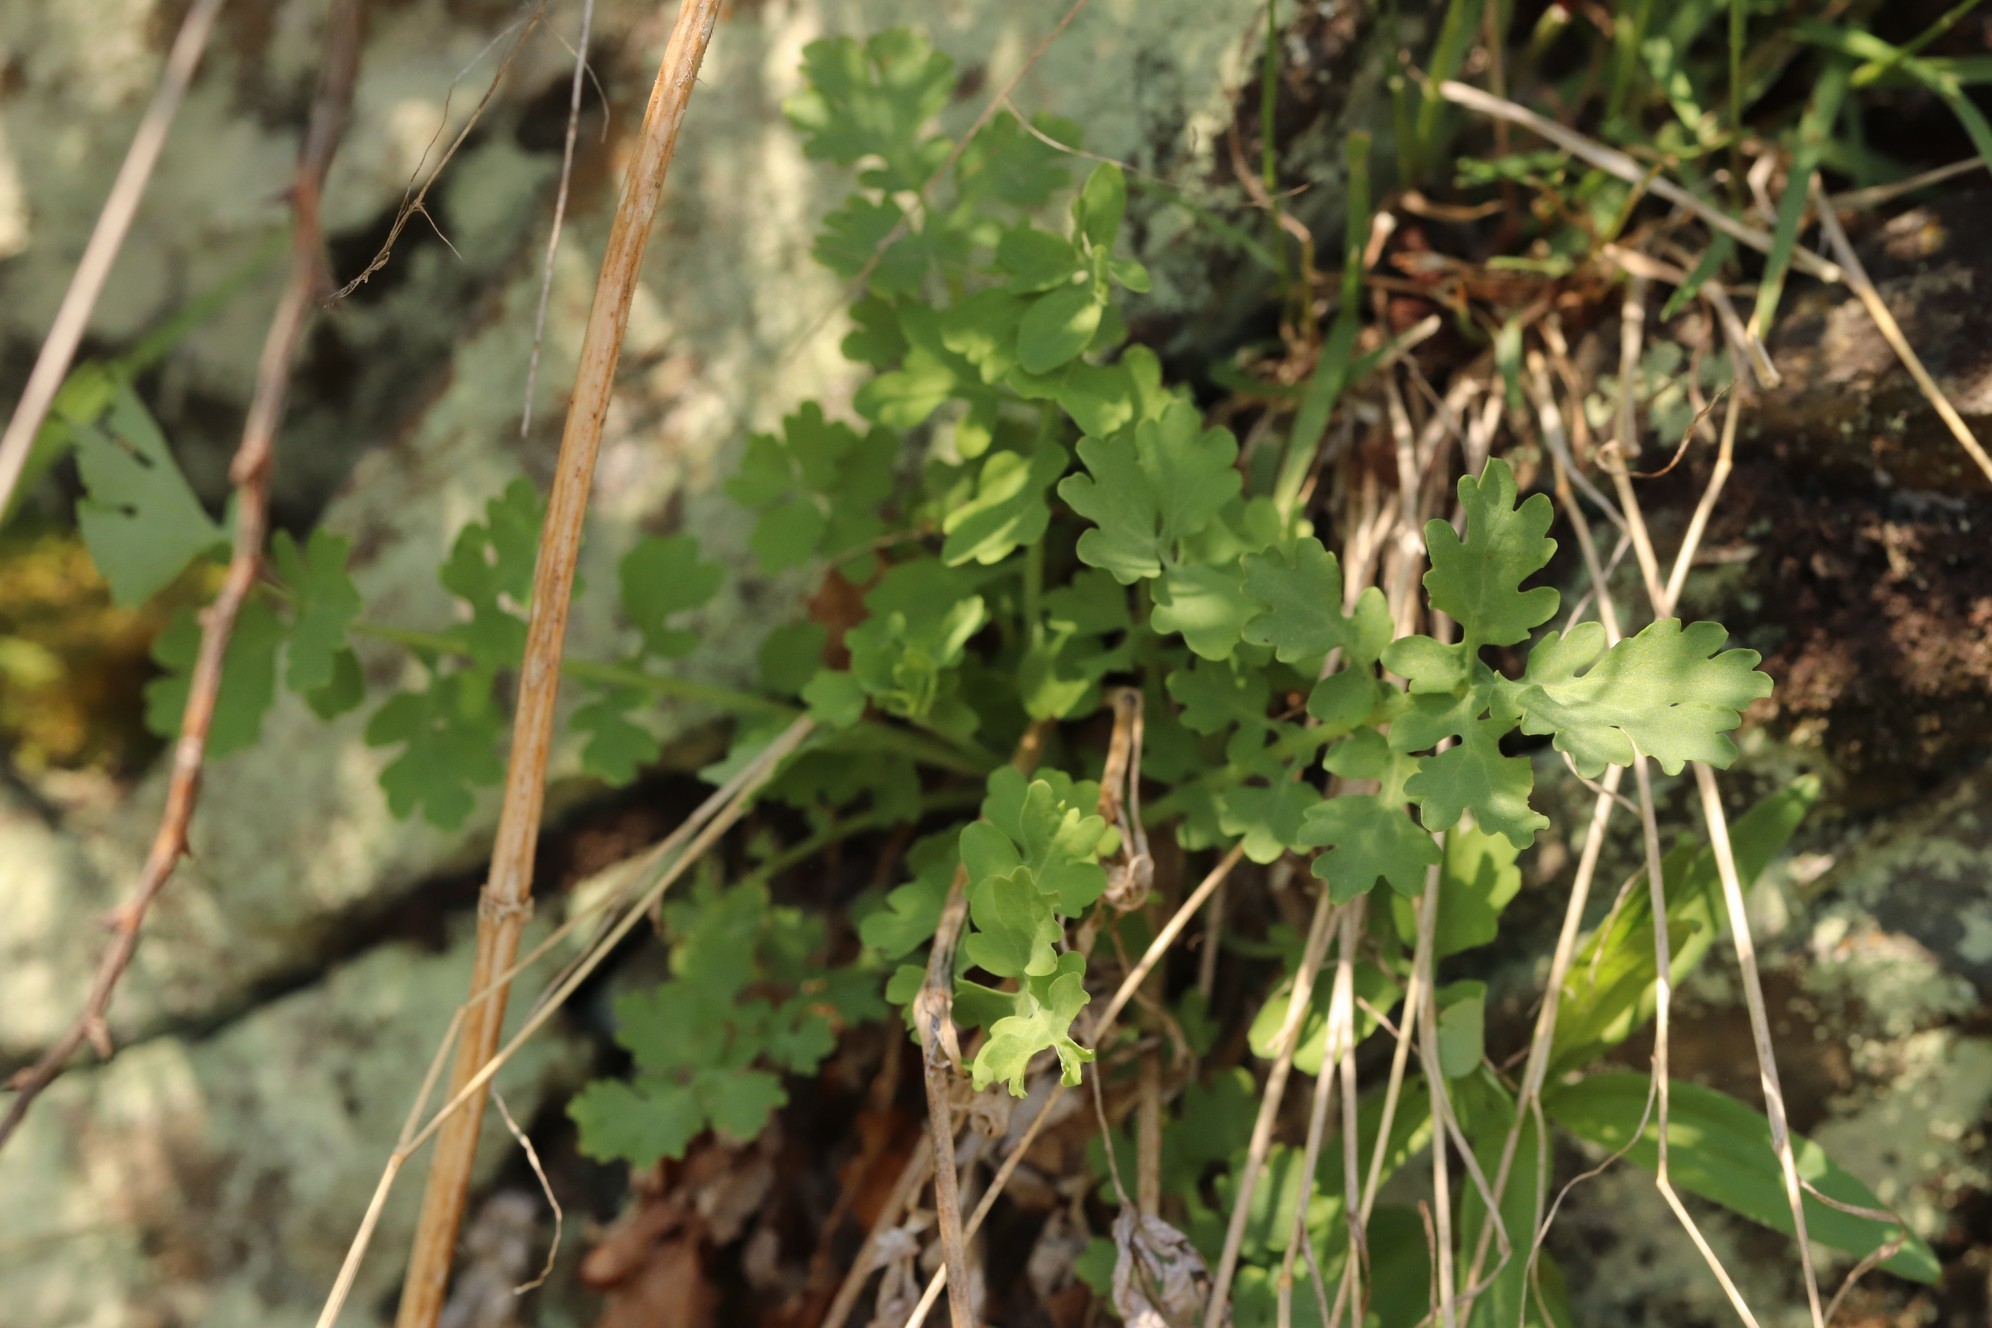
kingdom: Plantae
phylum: Tracheophyta
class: Magnoliopsida
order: Ranunculales
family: Papaveraceae
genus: Chelidonium
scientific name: Chelidonium majus
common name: Greater celandine
